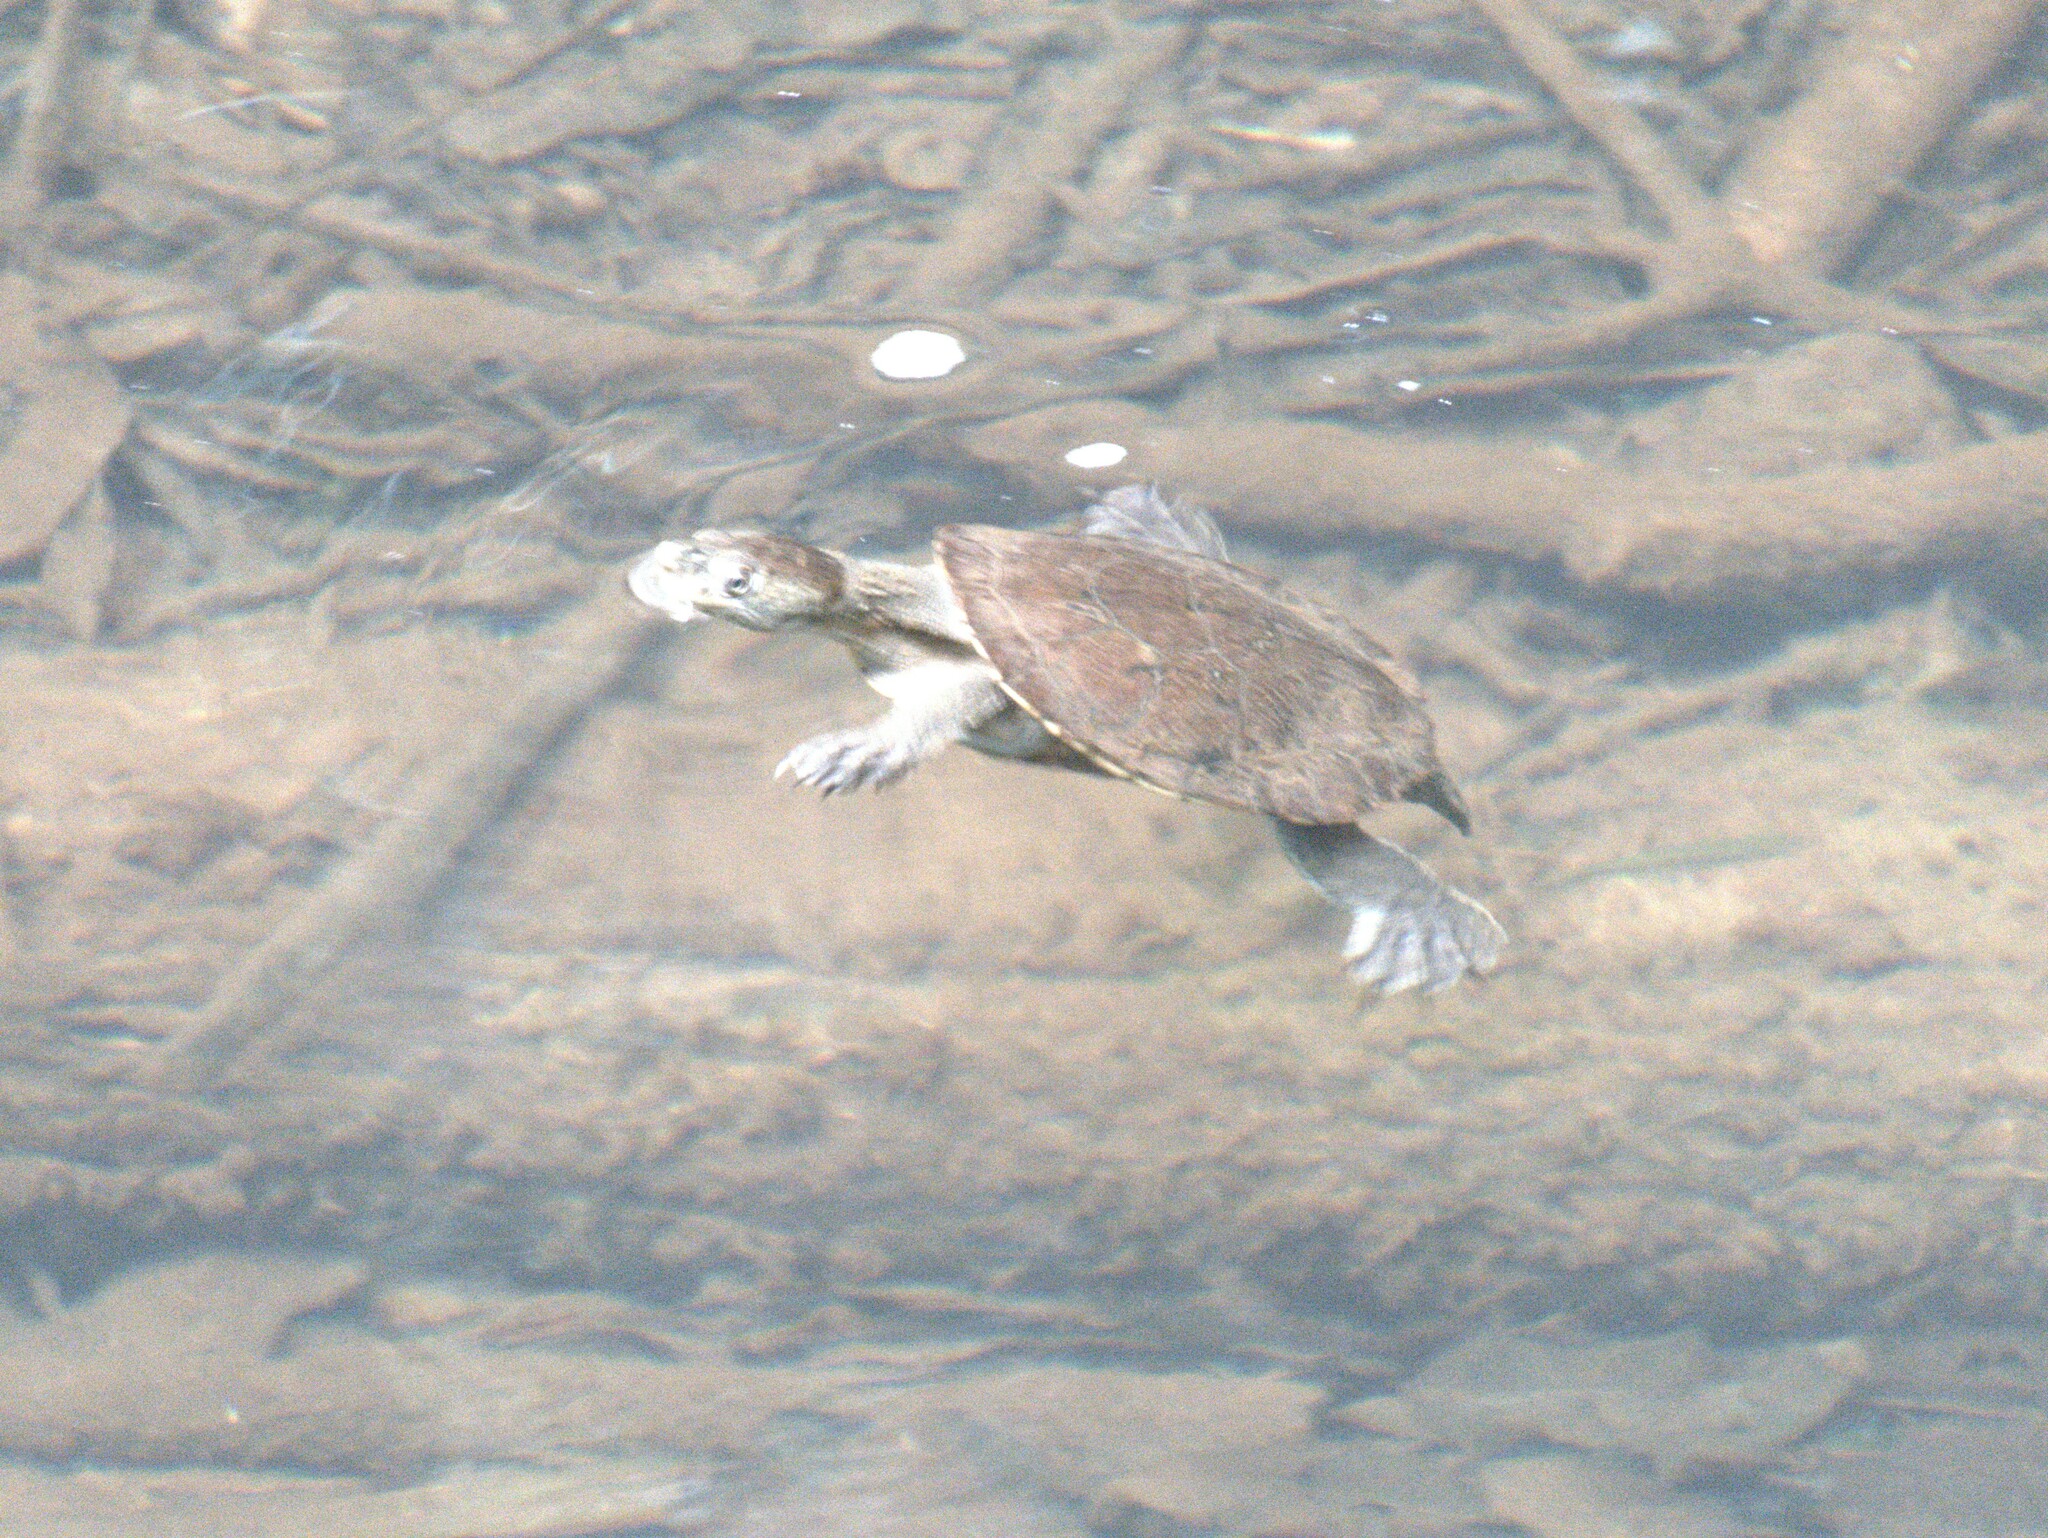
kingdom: Animalia
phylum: Chordata
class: Testudines
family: Chelidae
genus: Myuchelys
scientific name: Myuchelys latisternum
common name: Serrated snapping turtle
